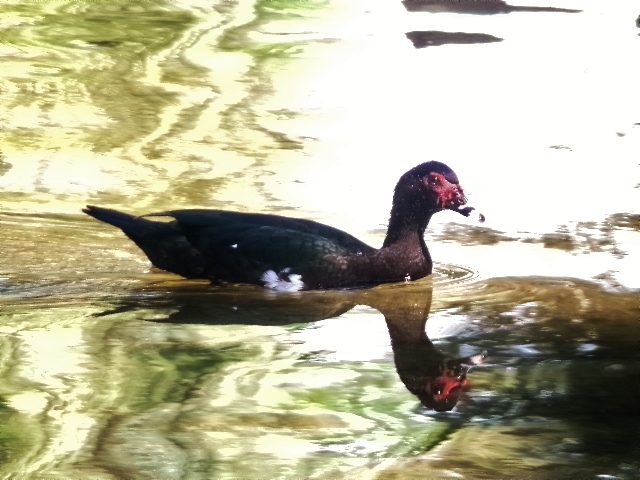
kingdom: Animalia
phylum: Chordata
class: Aves
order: Anseriformes
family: Anatidae
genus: Cairina
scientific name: Cairina moschata
